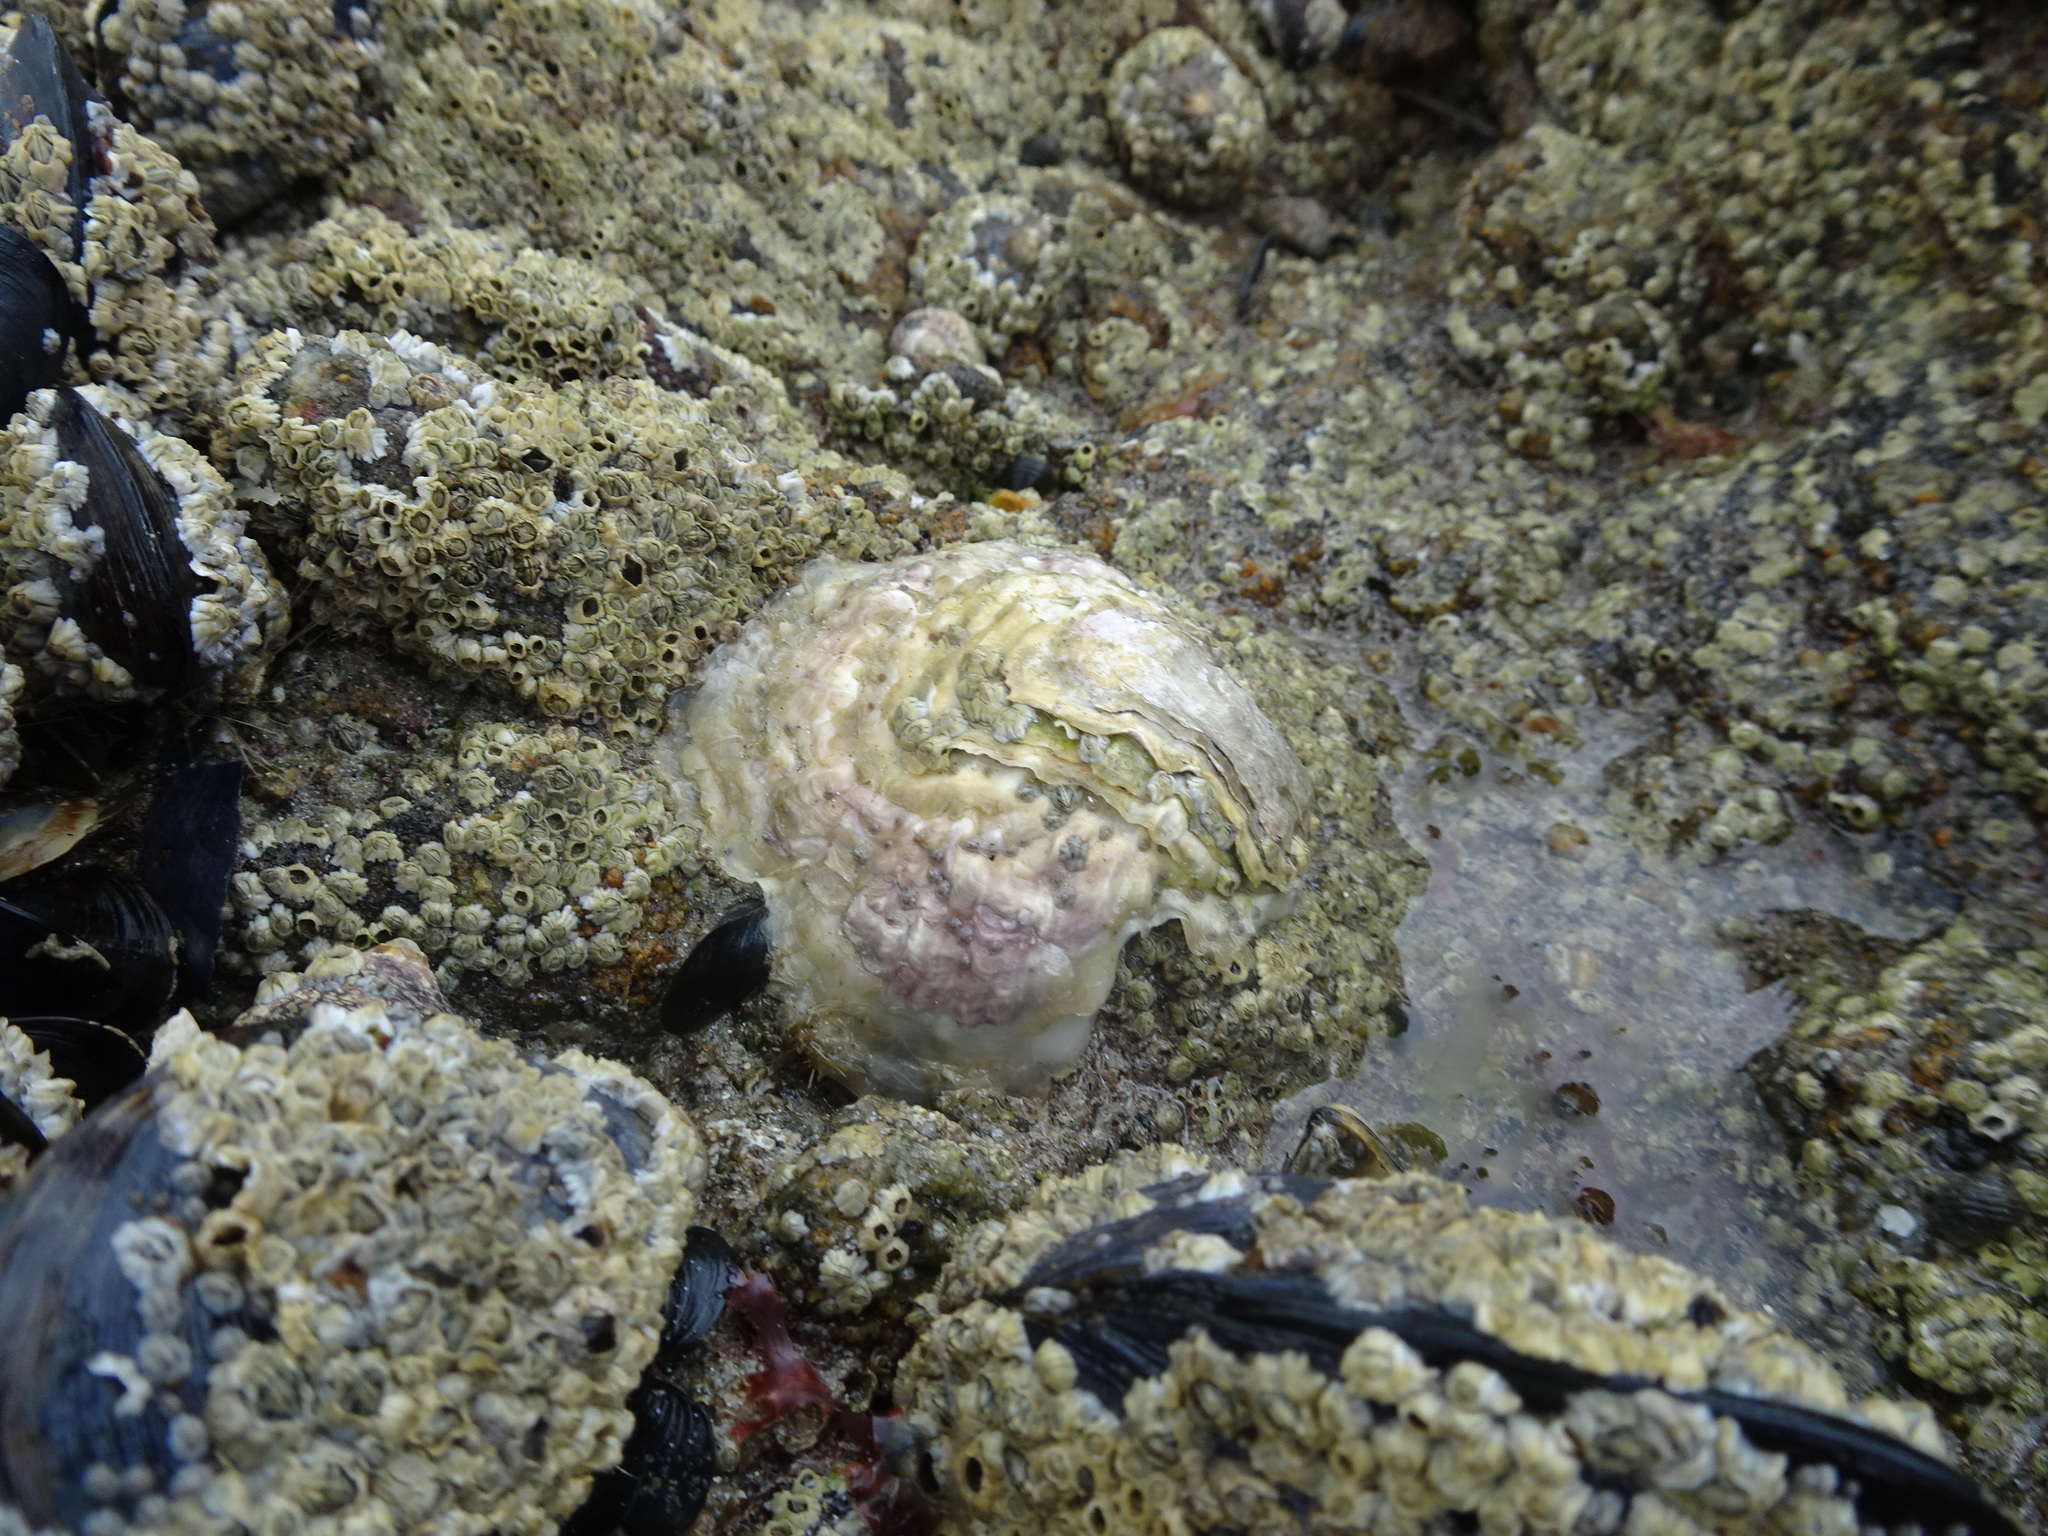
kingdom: Animalia
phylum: Mollusca
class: Bivalvia
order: Ostreida
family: Ostreidae
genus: Magallana
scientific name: Magallana gigas
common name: Pacific oyster
